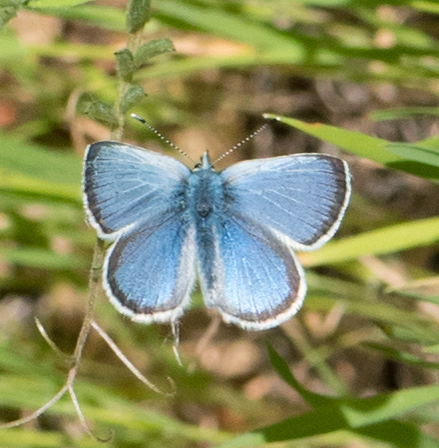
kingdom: Animalia
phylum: Arthropoda
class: Insecta
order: Lepidoptera
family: Lycaenidae
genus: Glaucopsyche
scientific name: Glaucopsyche lygdamus
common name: Silvery blue
